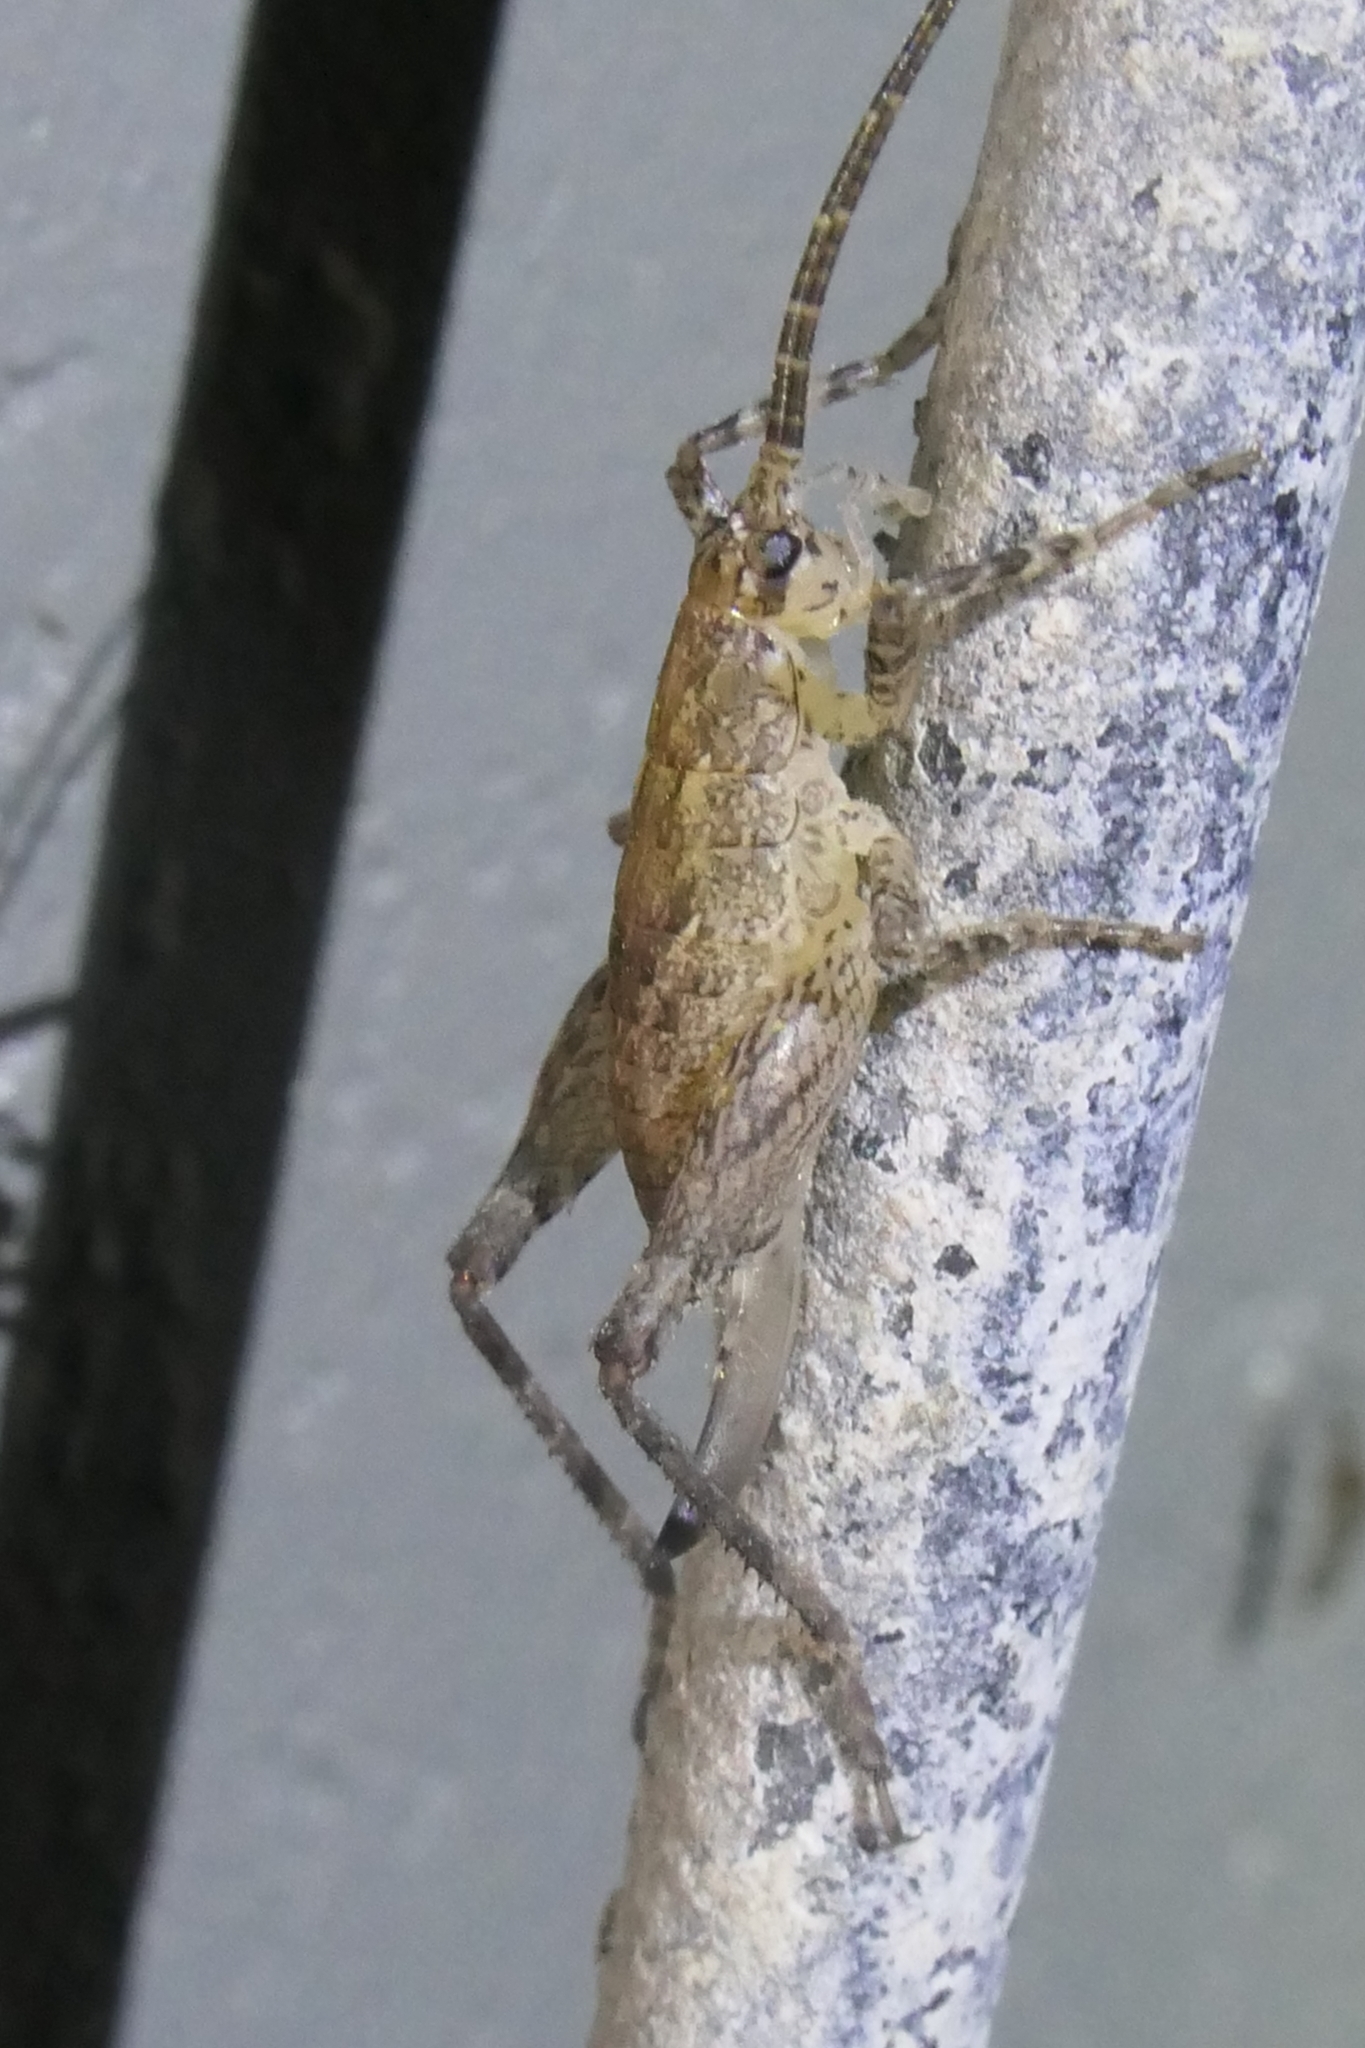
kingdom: Animalia
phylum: Arthropoda
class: Insecta
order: Orthoptera
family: Rhaphidophoridae
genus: Isoplectron
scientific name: Isoplectron armatum
